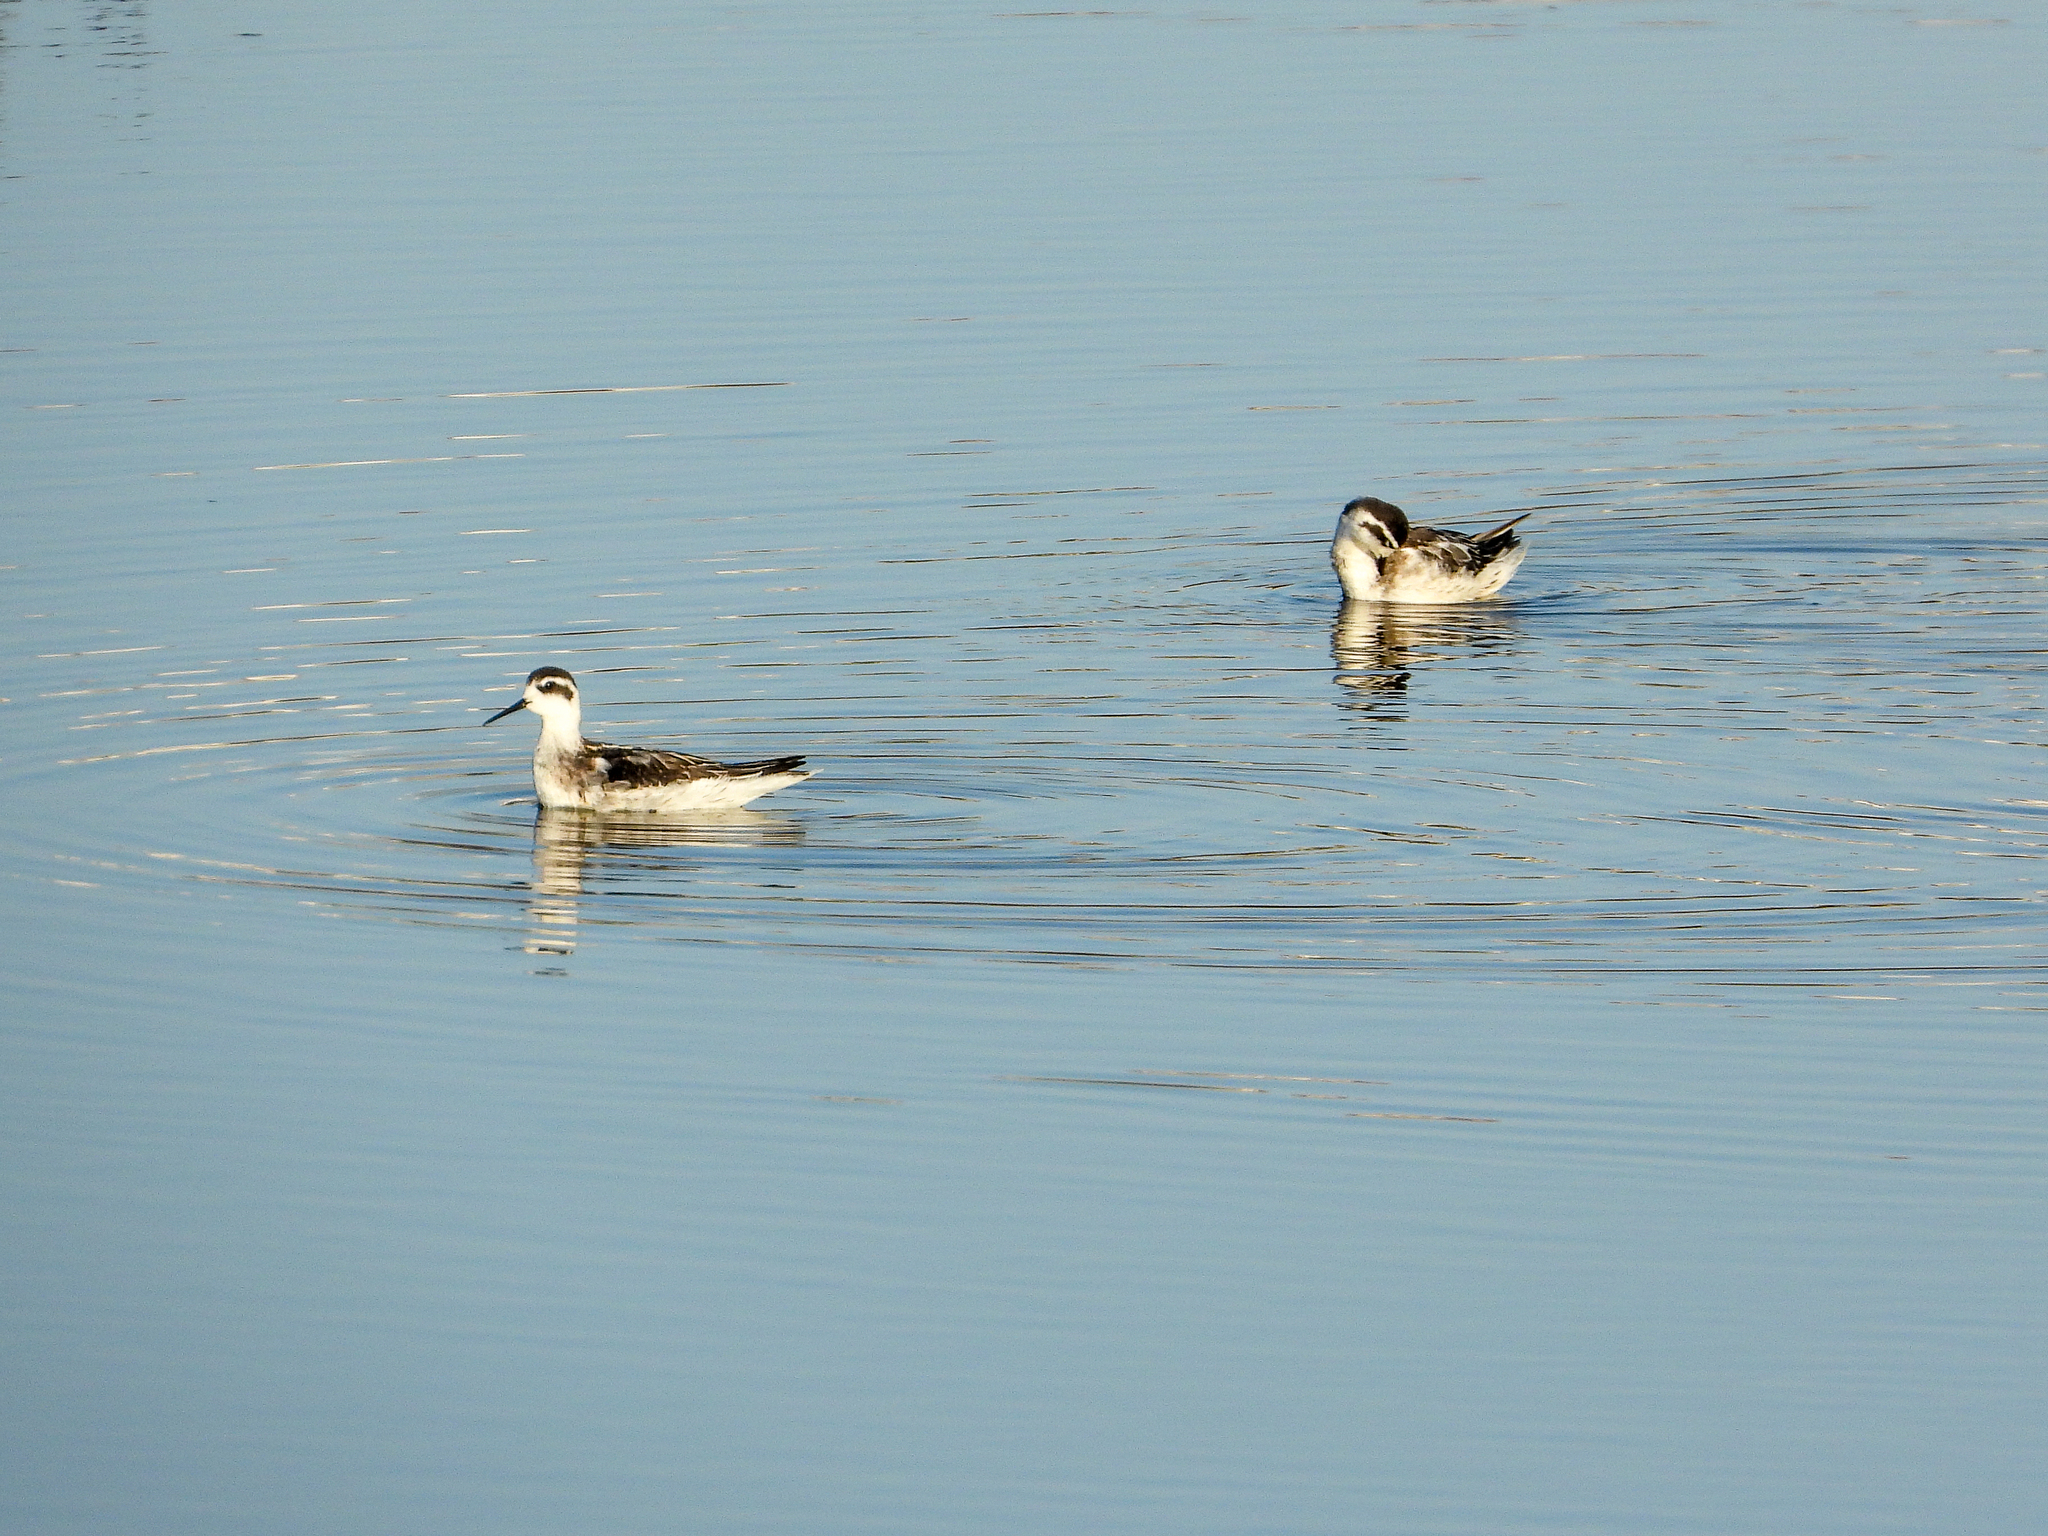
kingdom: Animalia
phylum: Chordata
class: Aves
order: Charadriiformes
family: Scolopacidae
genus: Phalaropus
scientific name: Phalaropus lobatus
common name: Red-necked phalarope
